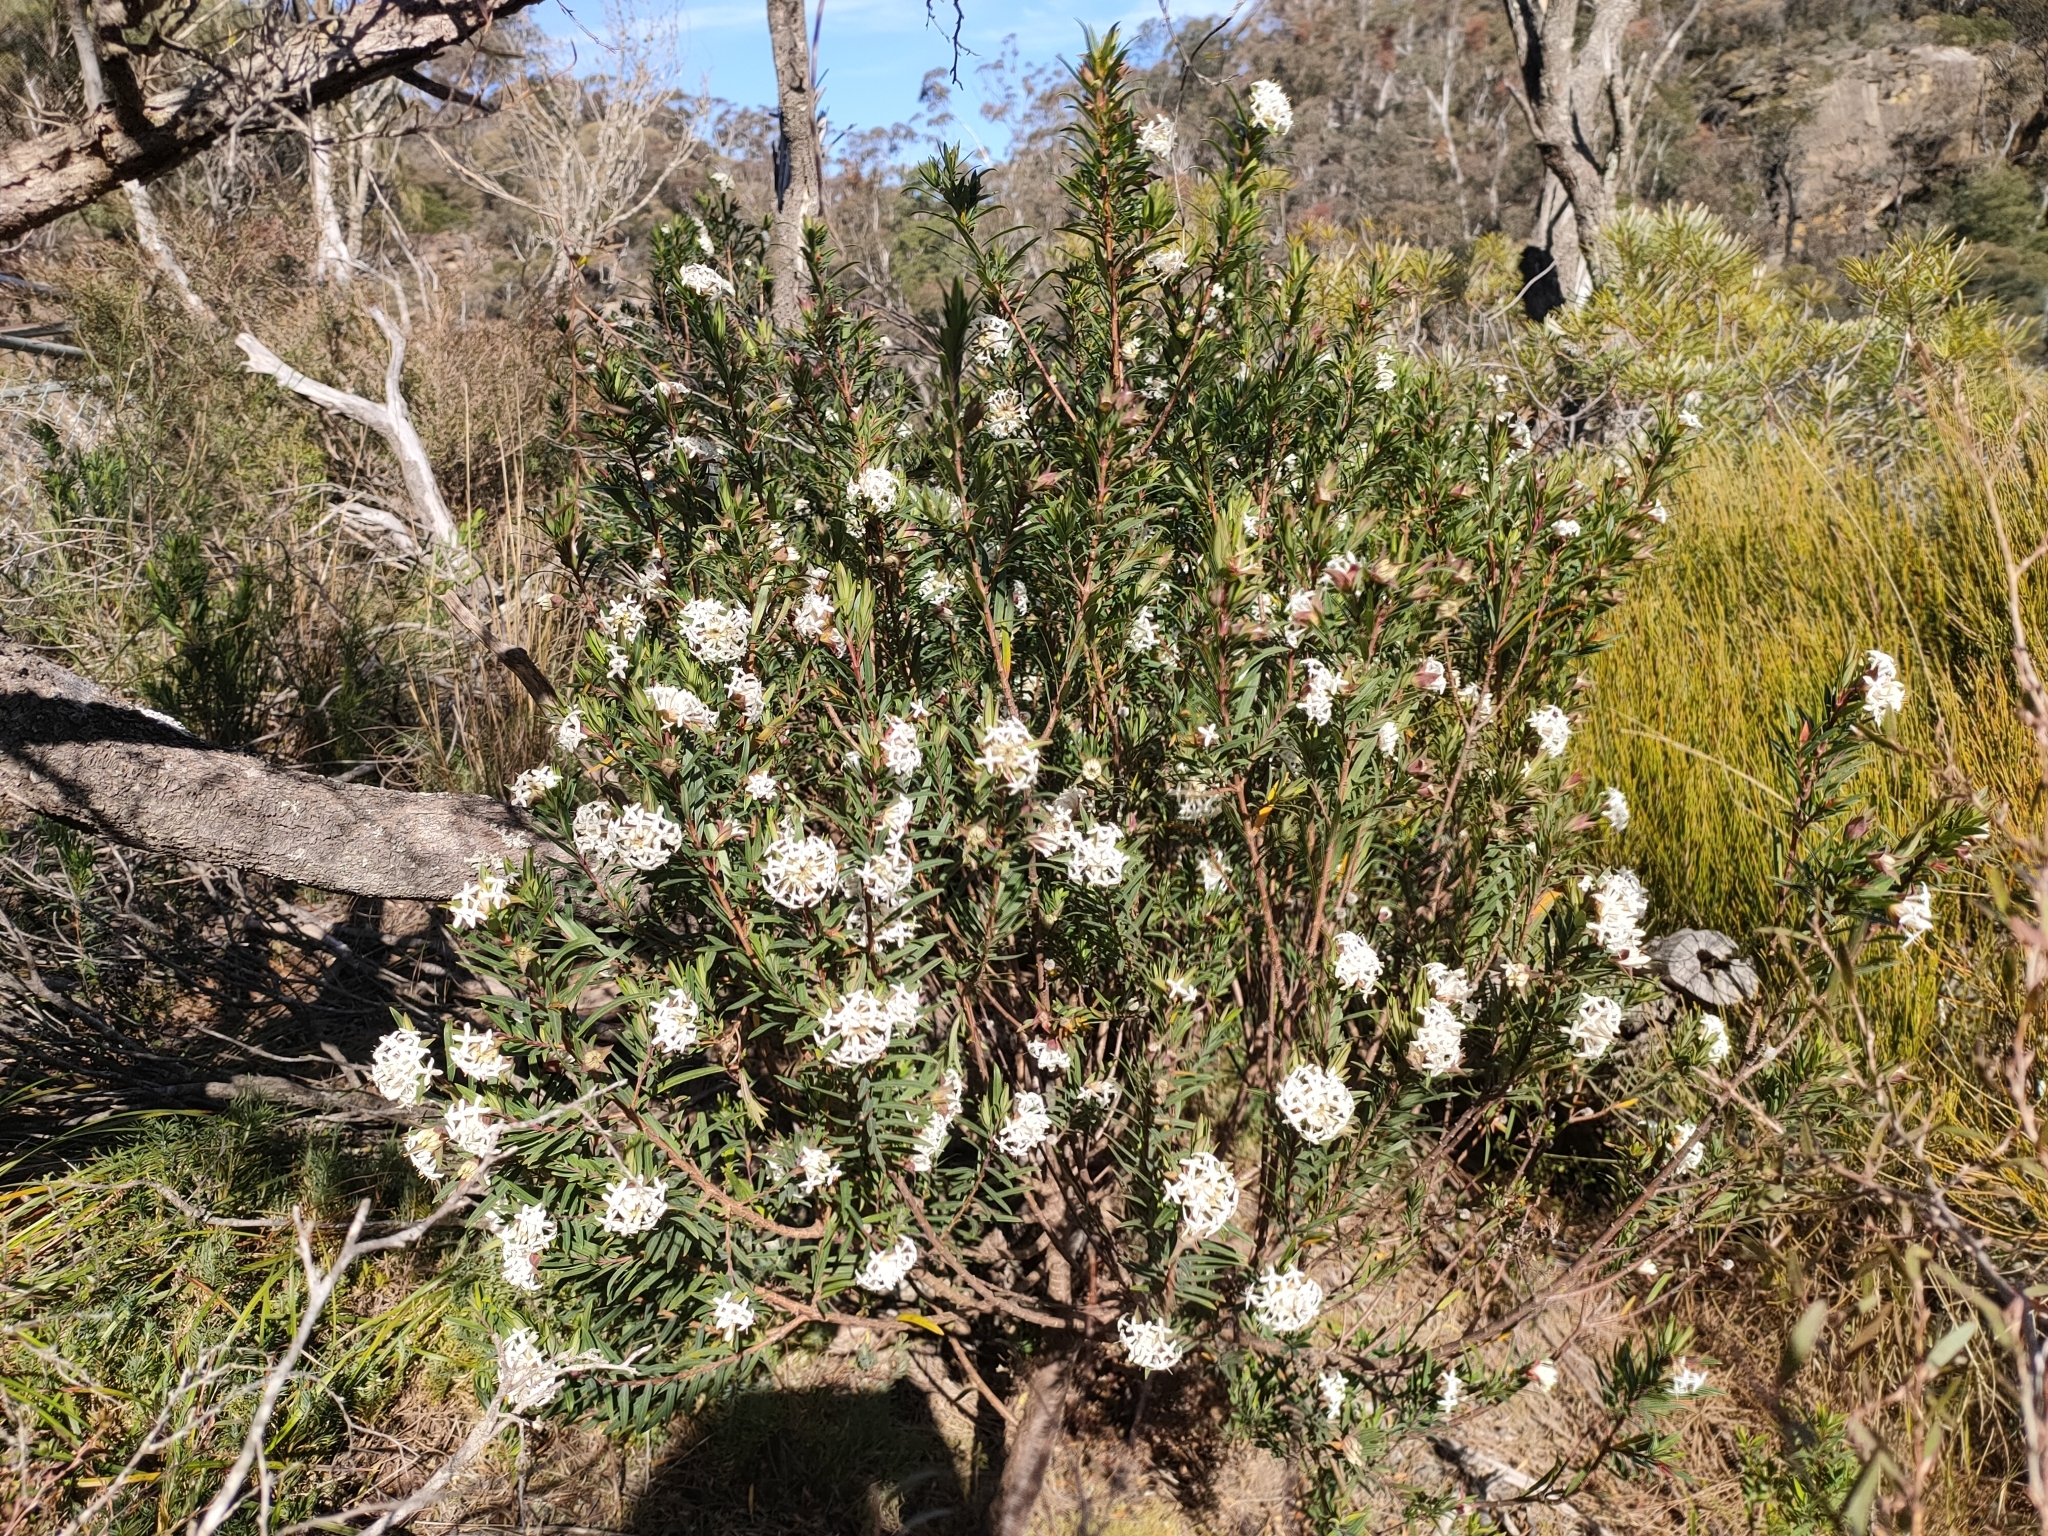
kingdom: Plantae
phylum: Tracheophyta
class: Magnoliopsida
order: Malvales
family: Thymelaeaceae
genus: Pimelea
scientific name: Pimelea linifolia
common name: Queen-of-the-bush
